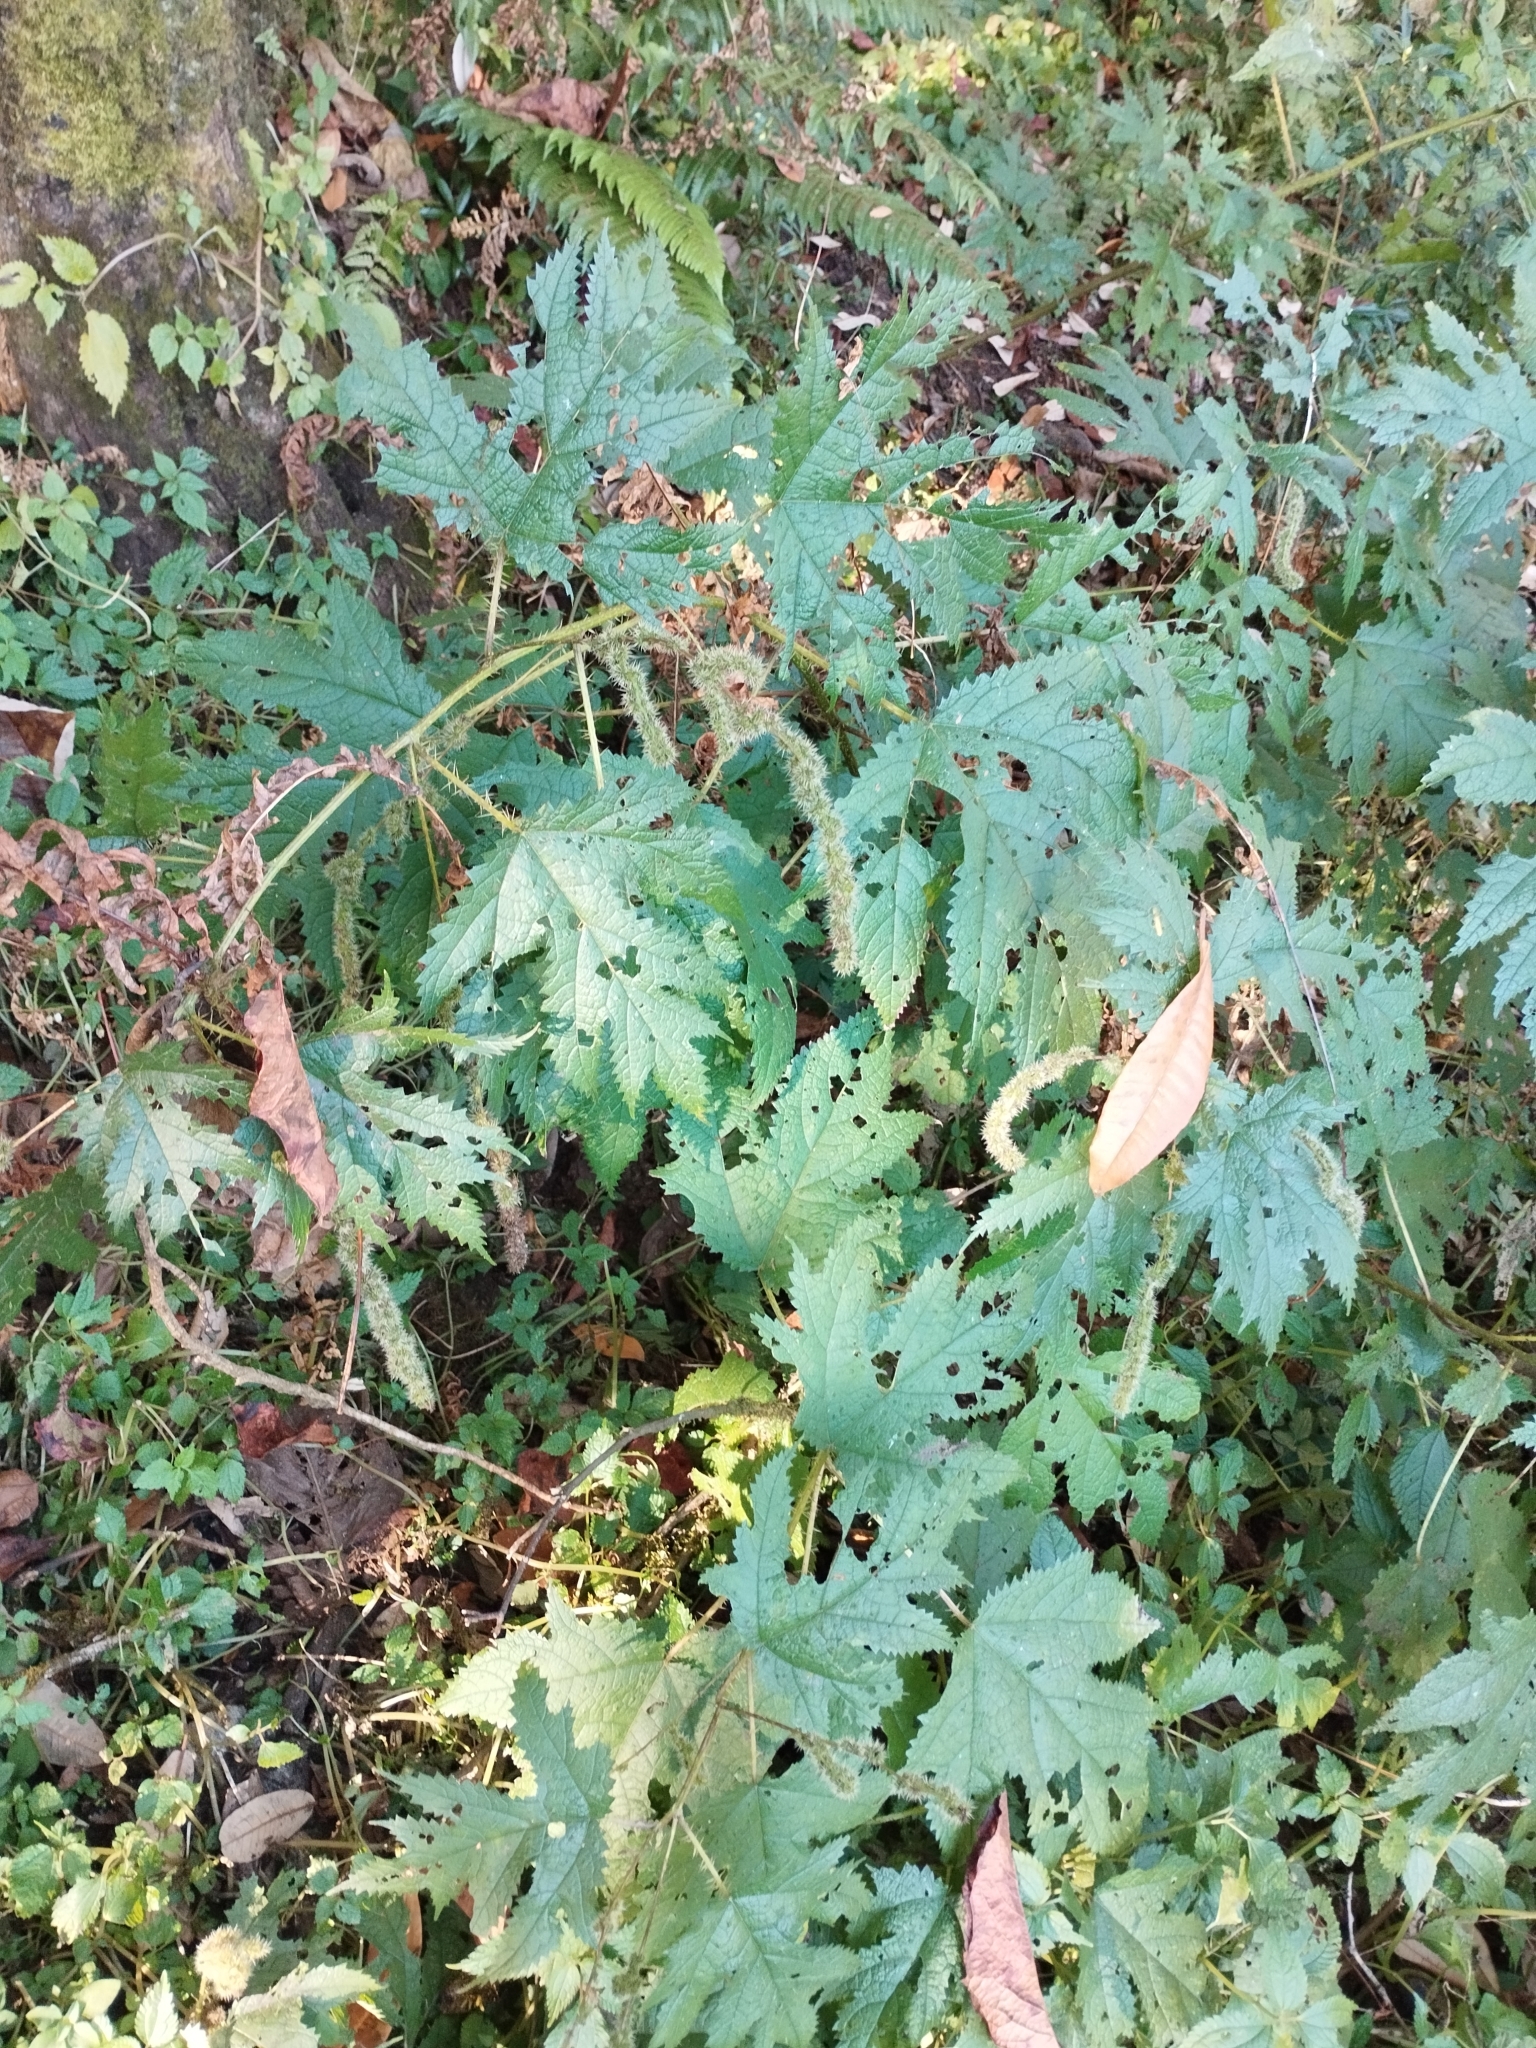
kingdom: Plantae
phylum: Tracheophyta
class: Magnoliopsida
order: Rosales
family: Urticaceae
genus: Girardinia
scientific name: Girardinia diversifolia
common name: Himalayan-nettle
